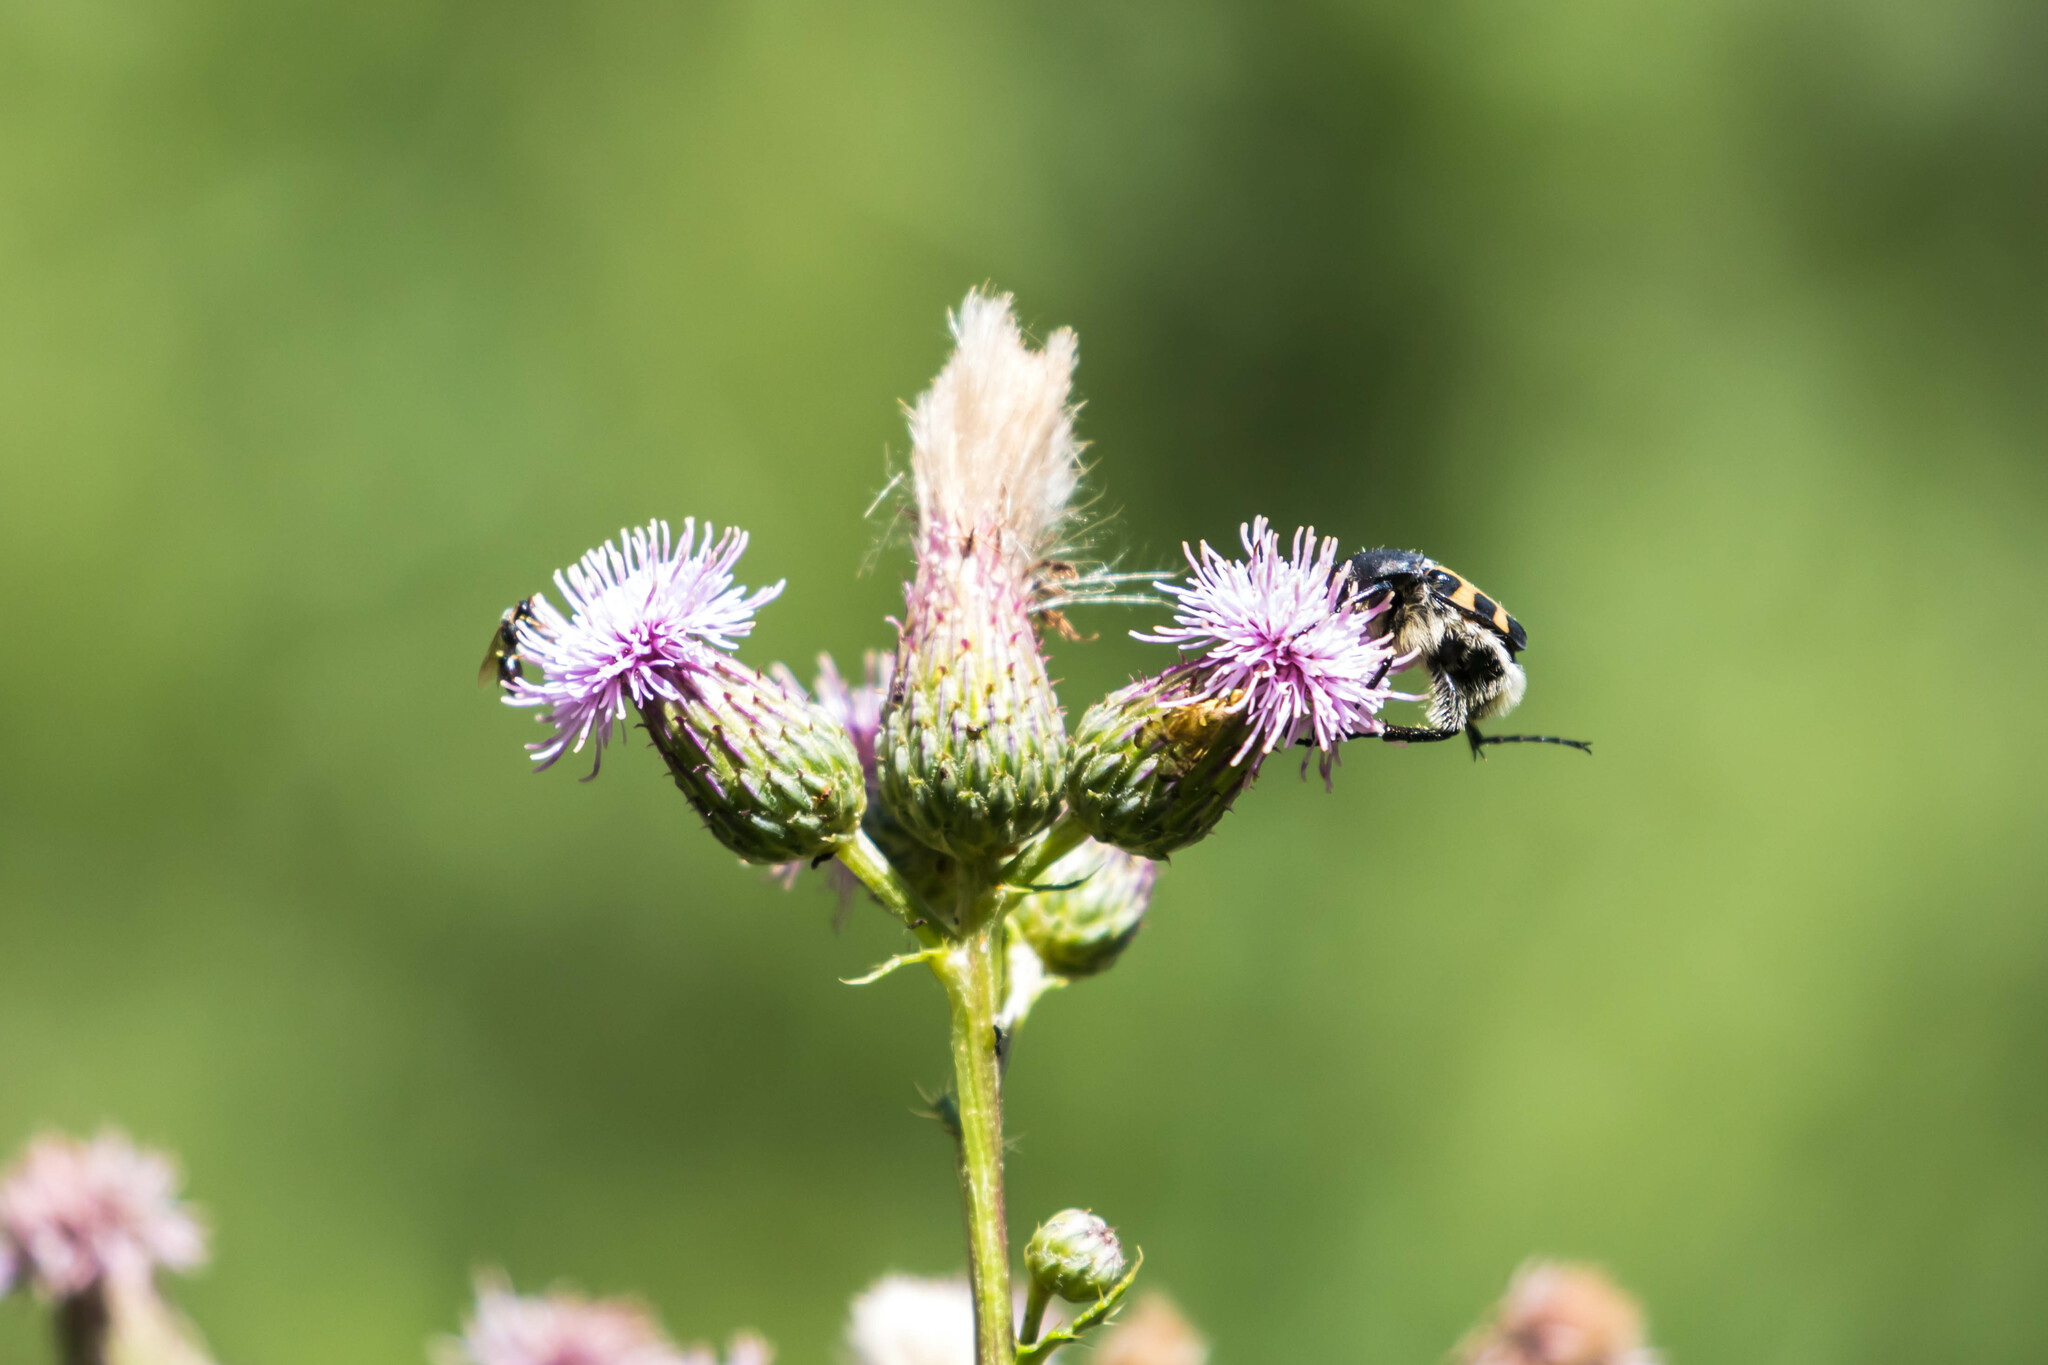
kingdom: Animalia
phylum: Arthropoda
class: Insecta
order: Coleoptera
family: Scarabaeidae
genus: Trichius
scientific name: Trichius gallicus
